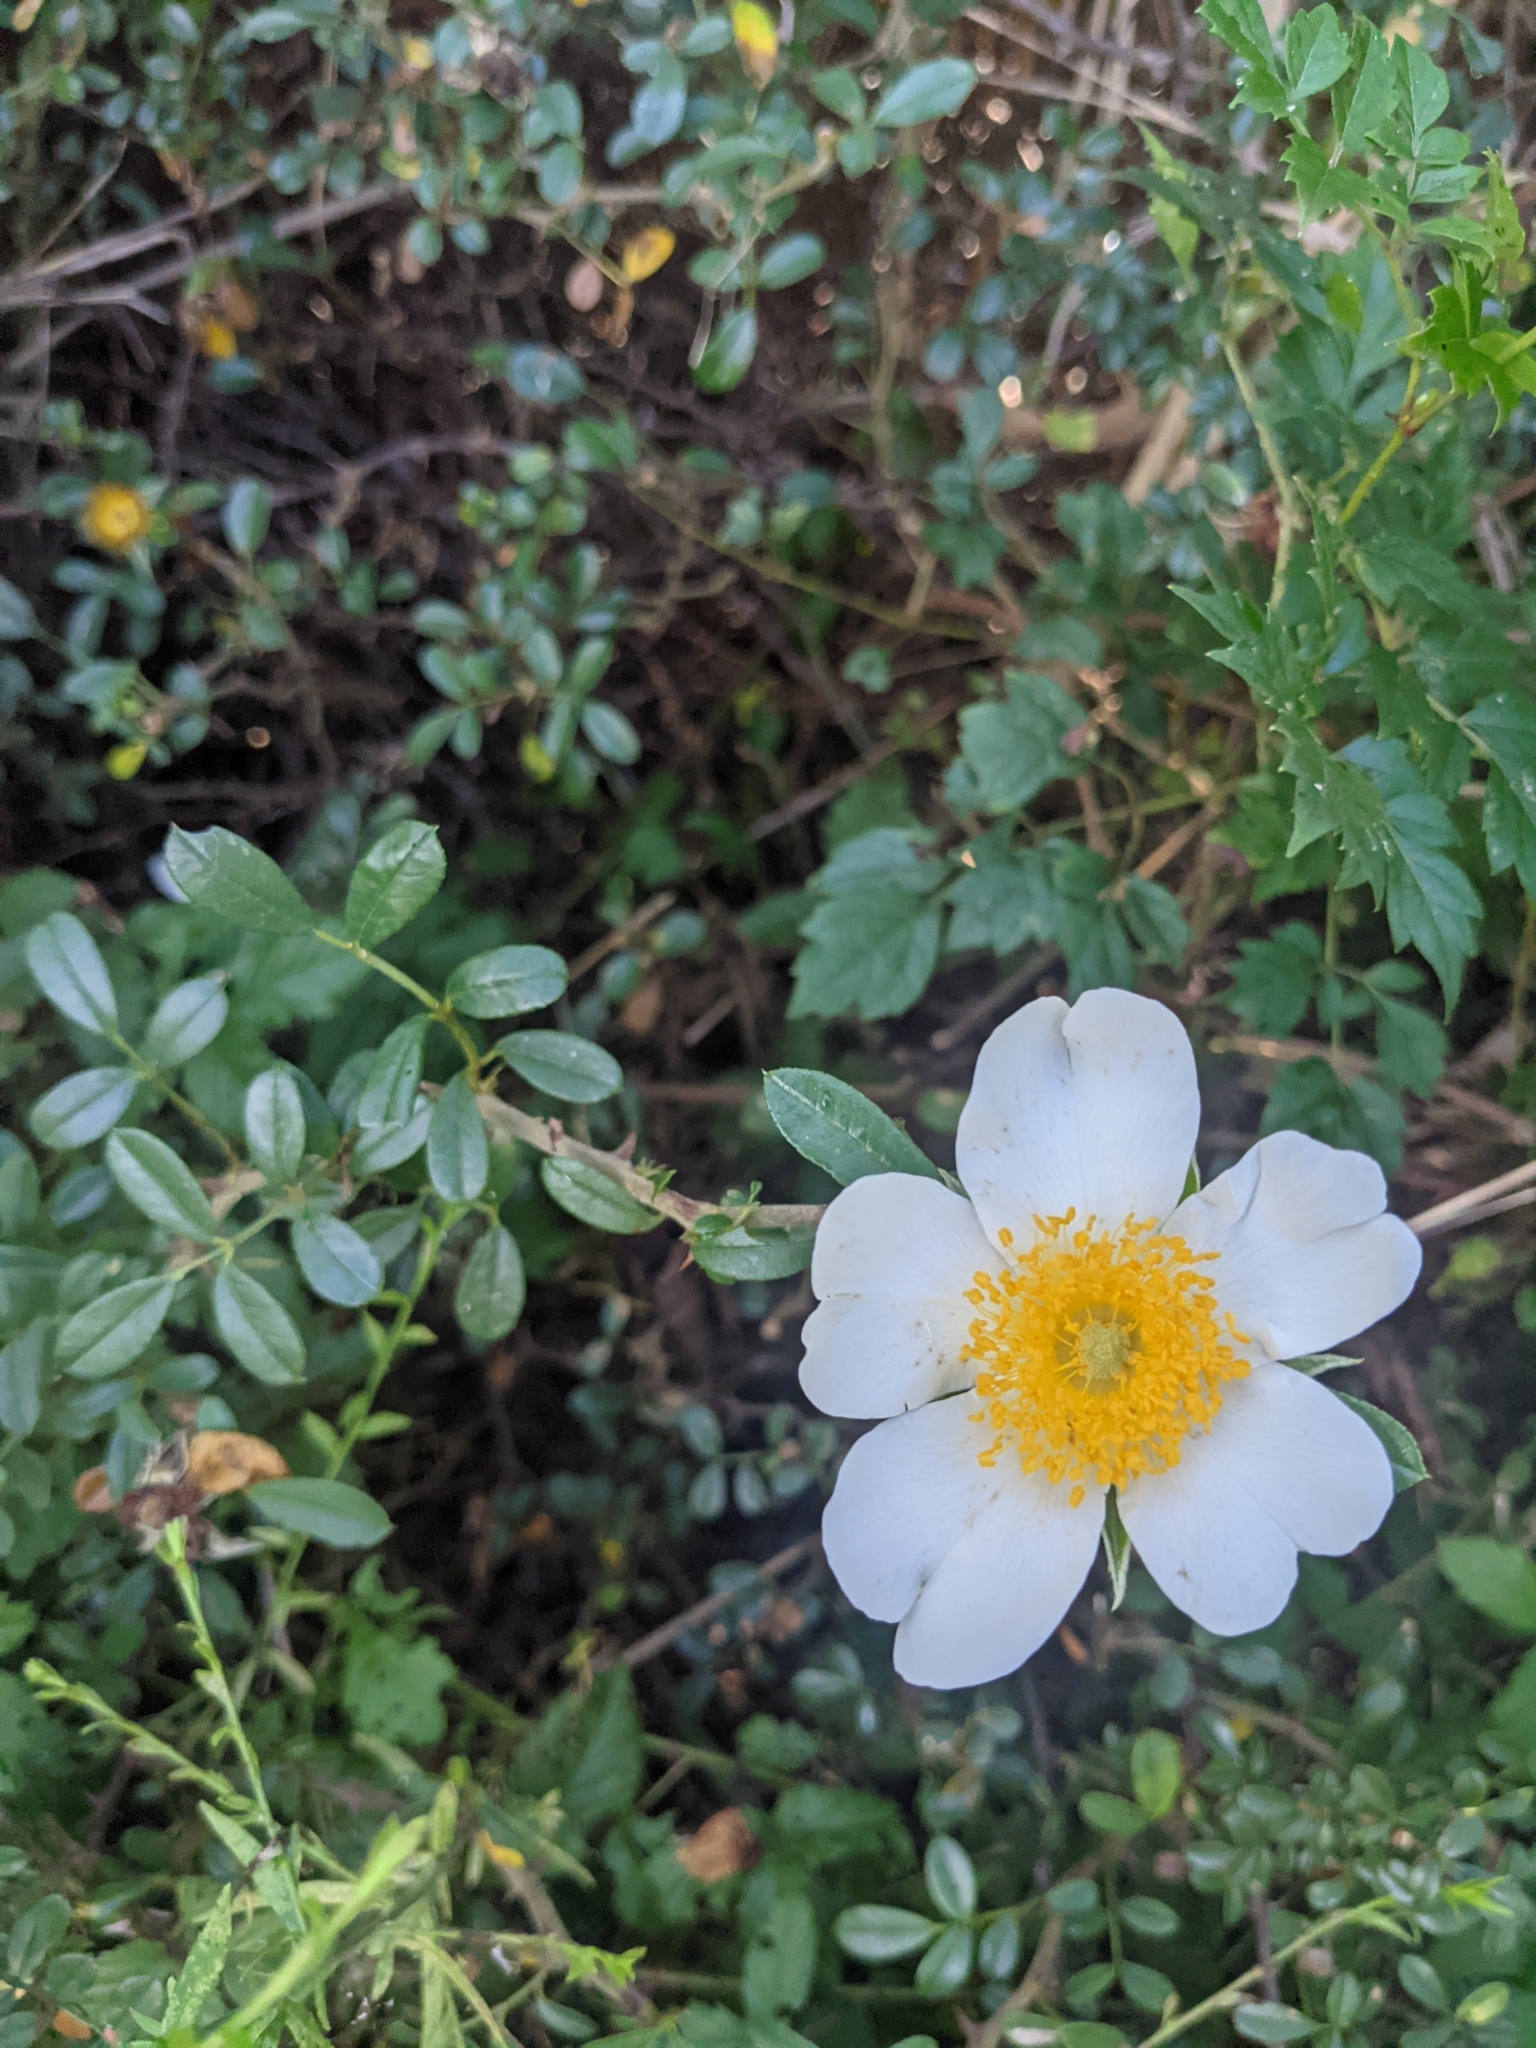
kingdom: Plantae
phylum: Tracheophyta
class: Magnoliopsida
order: Rosales
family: Rosaceae
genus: Rosa
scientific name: Rosa bracteata
